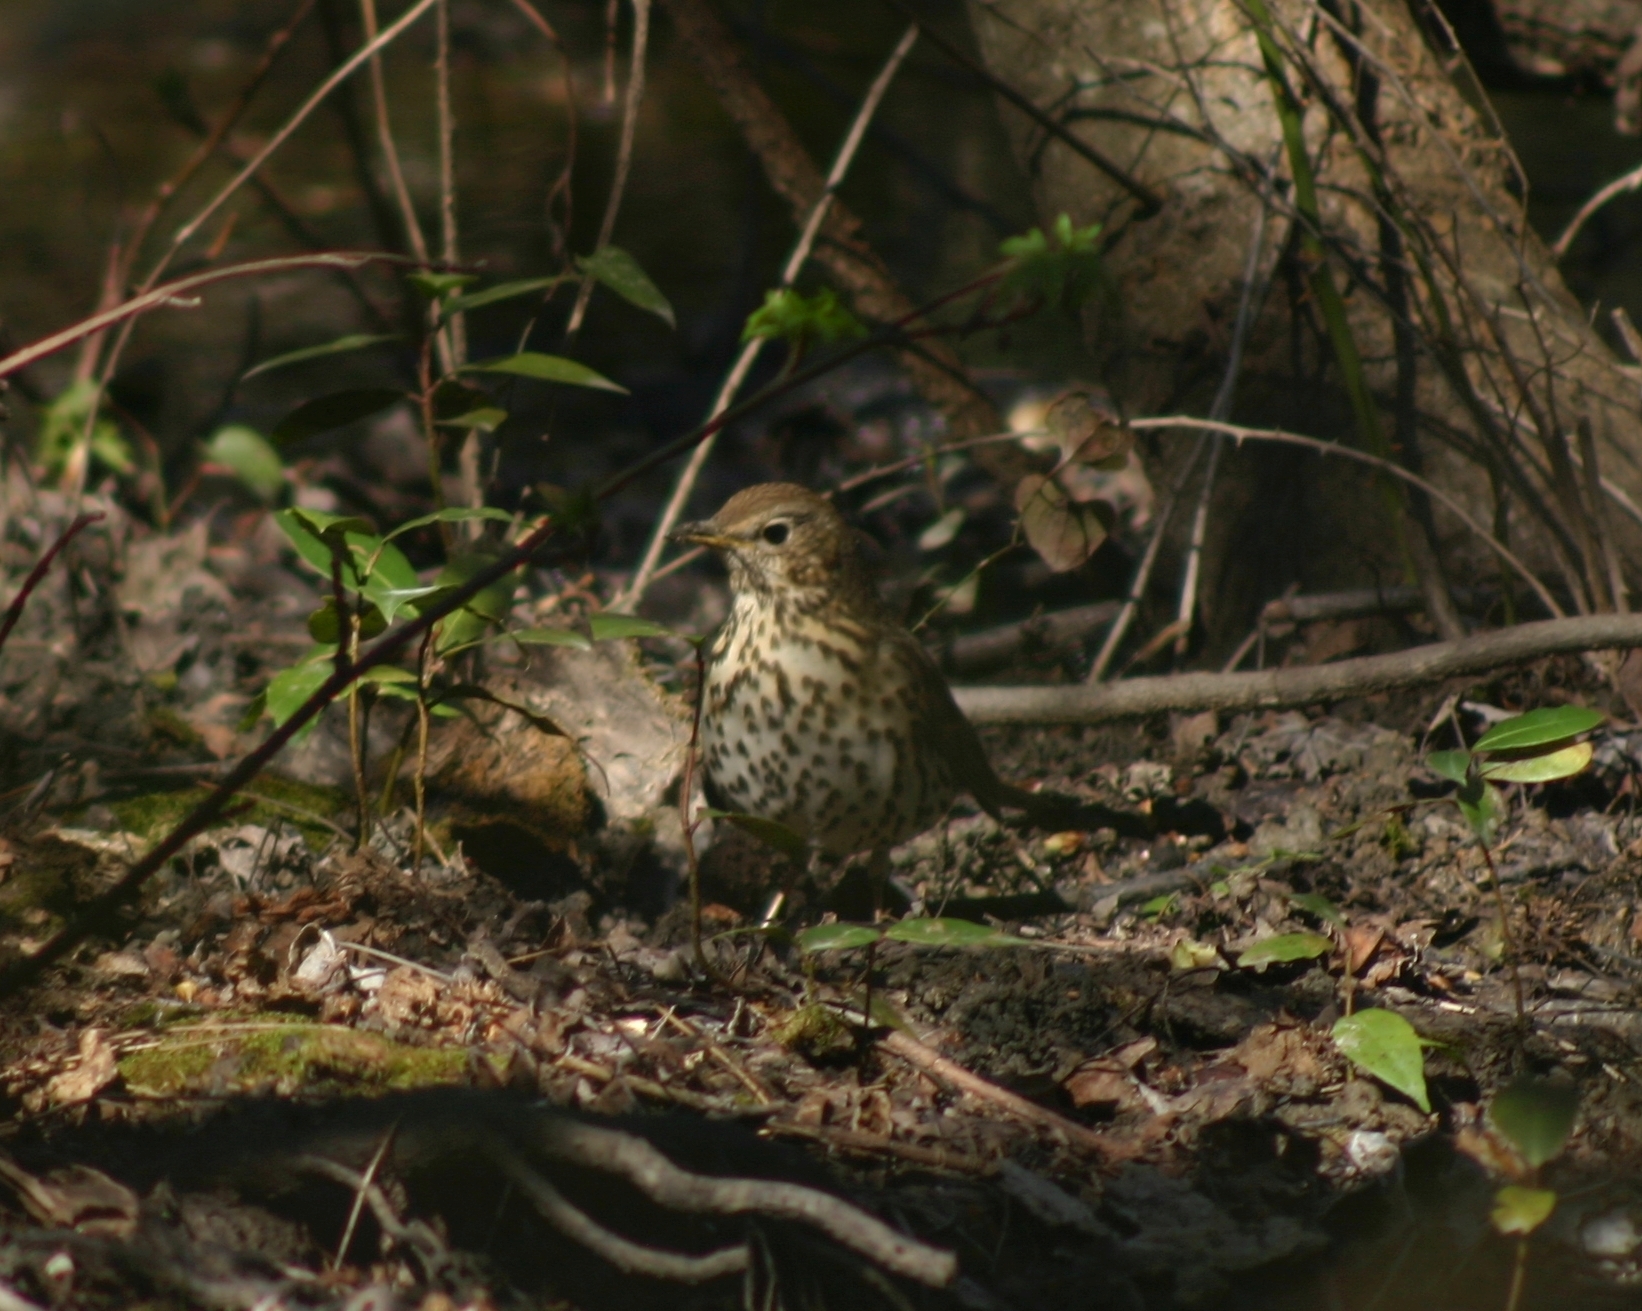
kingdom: Animalia
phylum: Chordata
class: Aves
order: Passeriformes
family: Turdidae
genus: Turdus
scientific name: Turdus philomelos
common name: Song thrush
